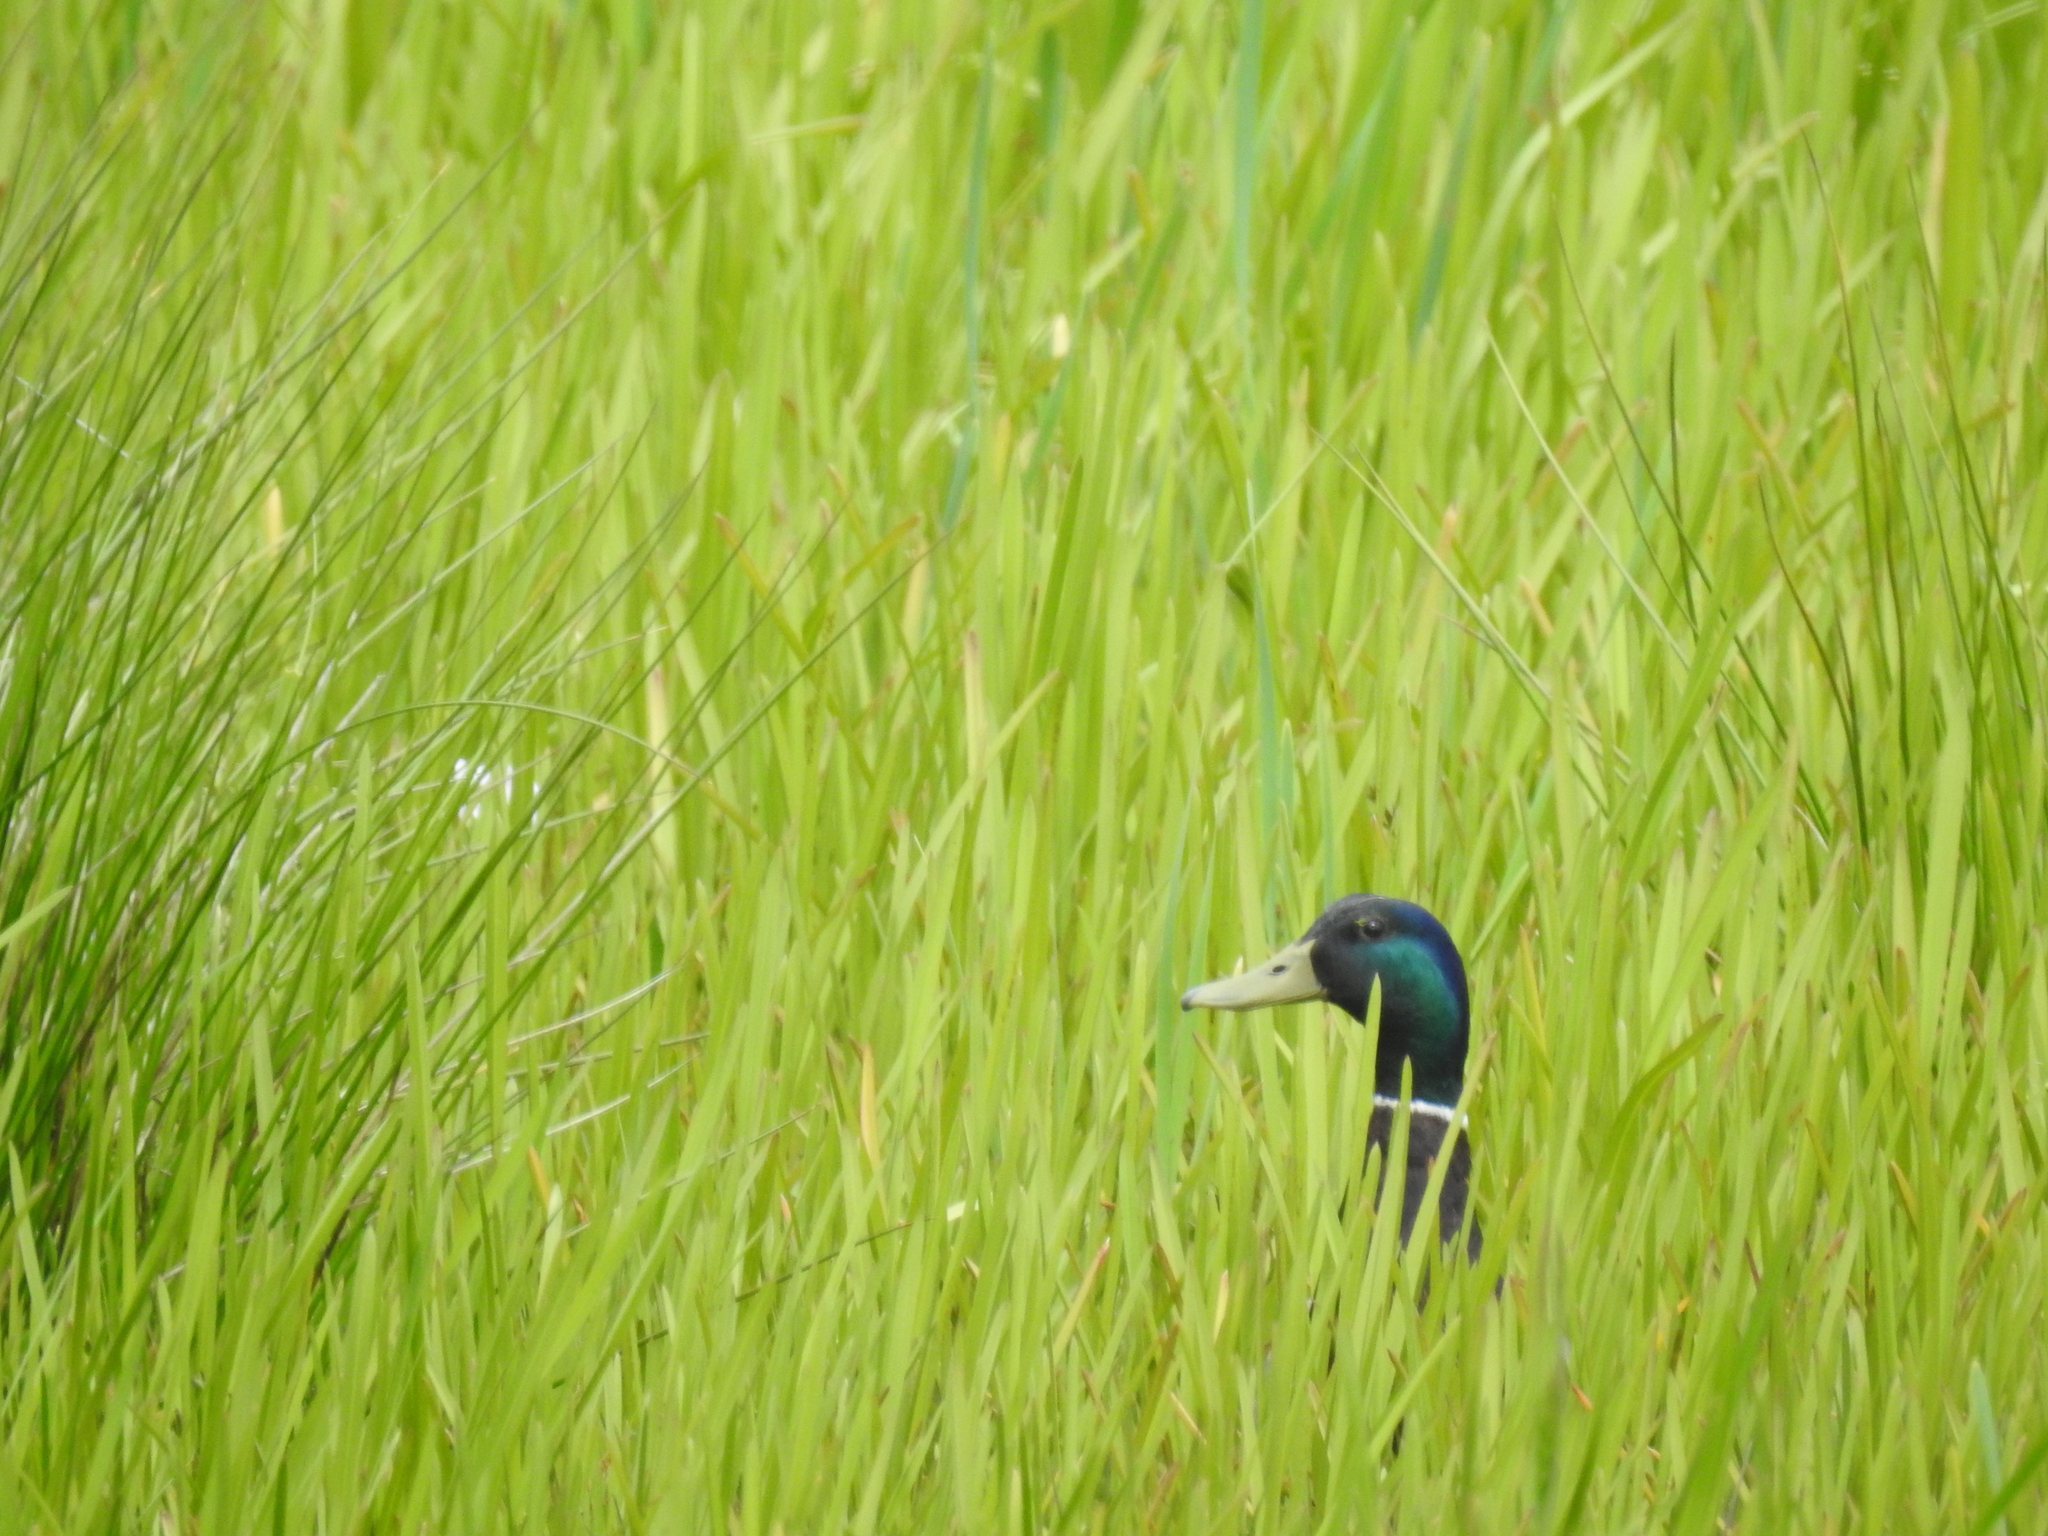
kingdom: Animalia
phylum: Chordata
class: Aves
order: Anseriformes
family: Anatidae
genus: Anas
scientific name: Anas platyrhynchos
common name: Mallard
